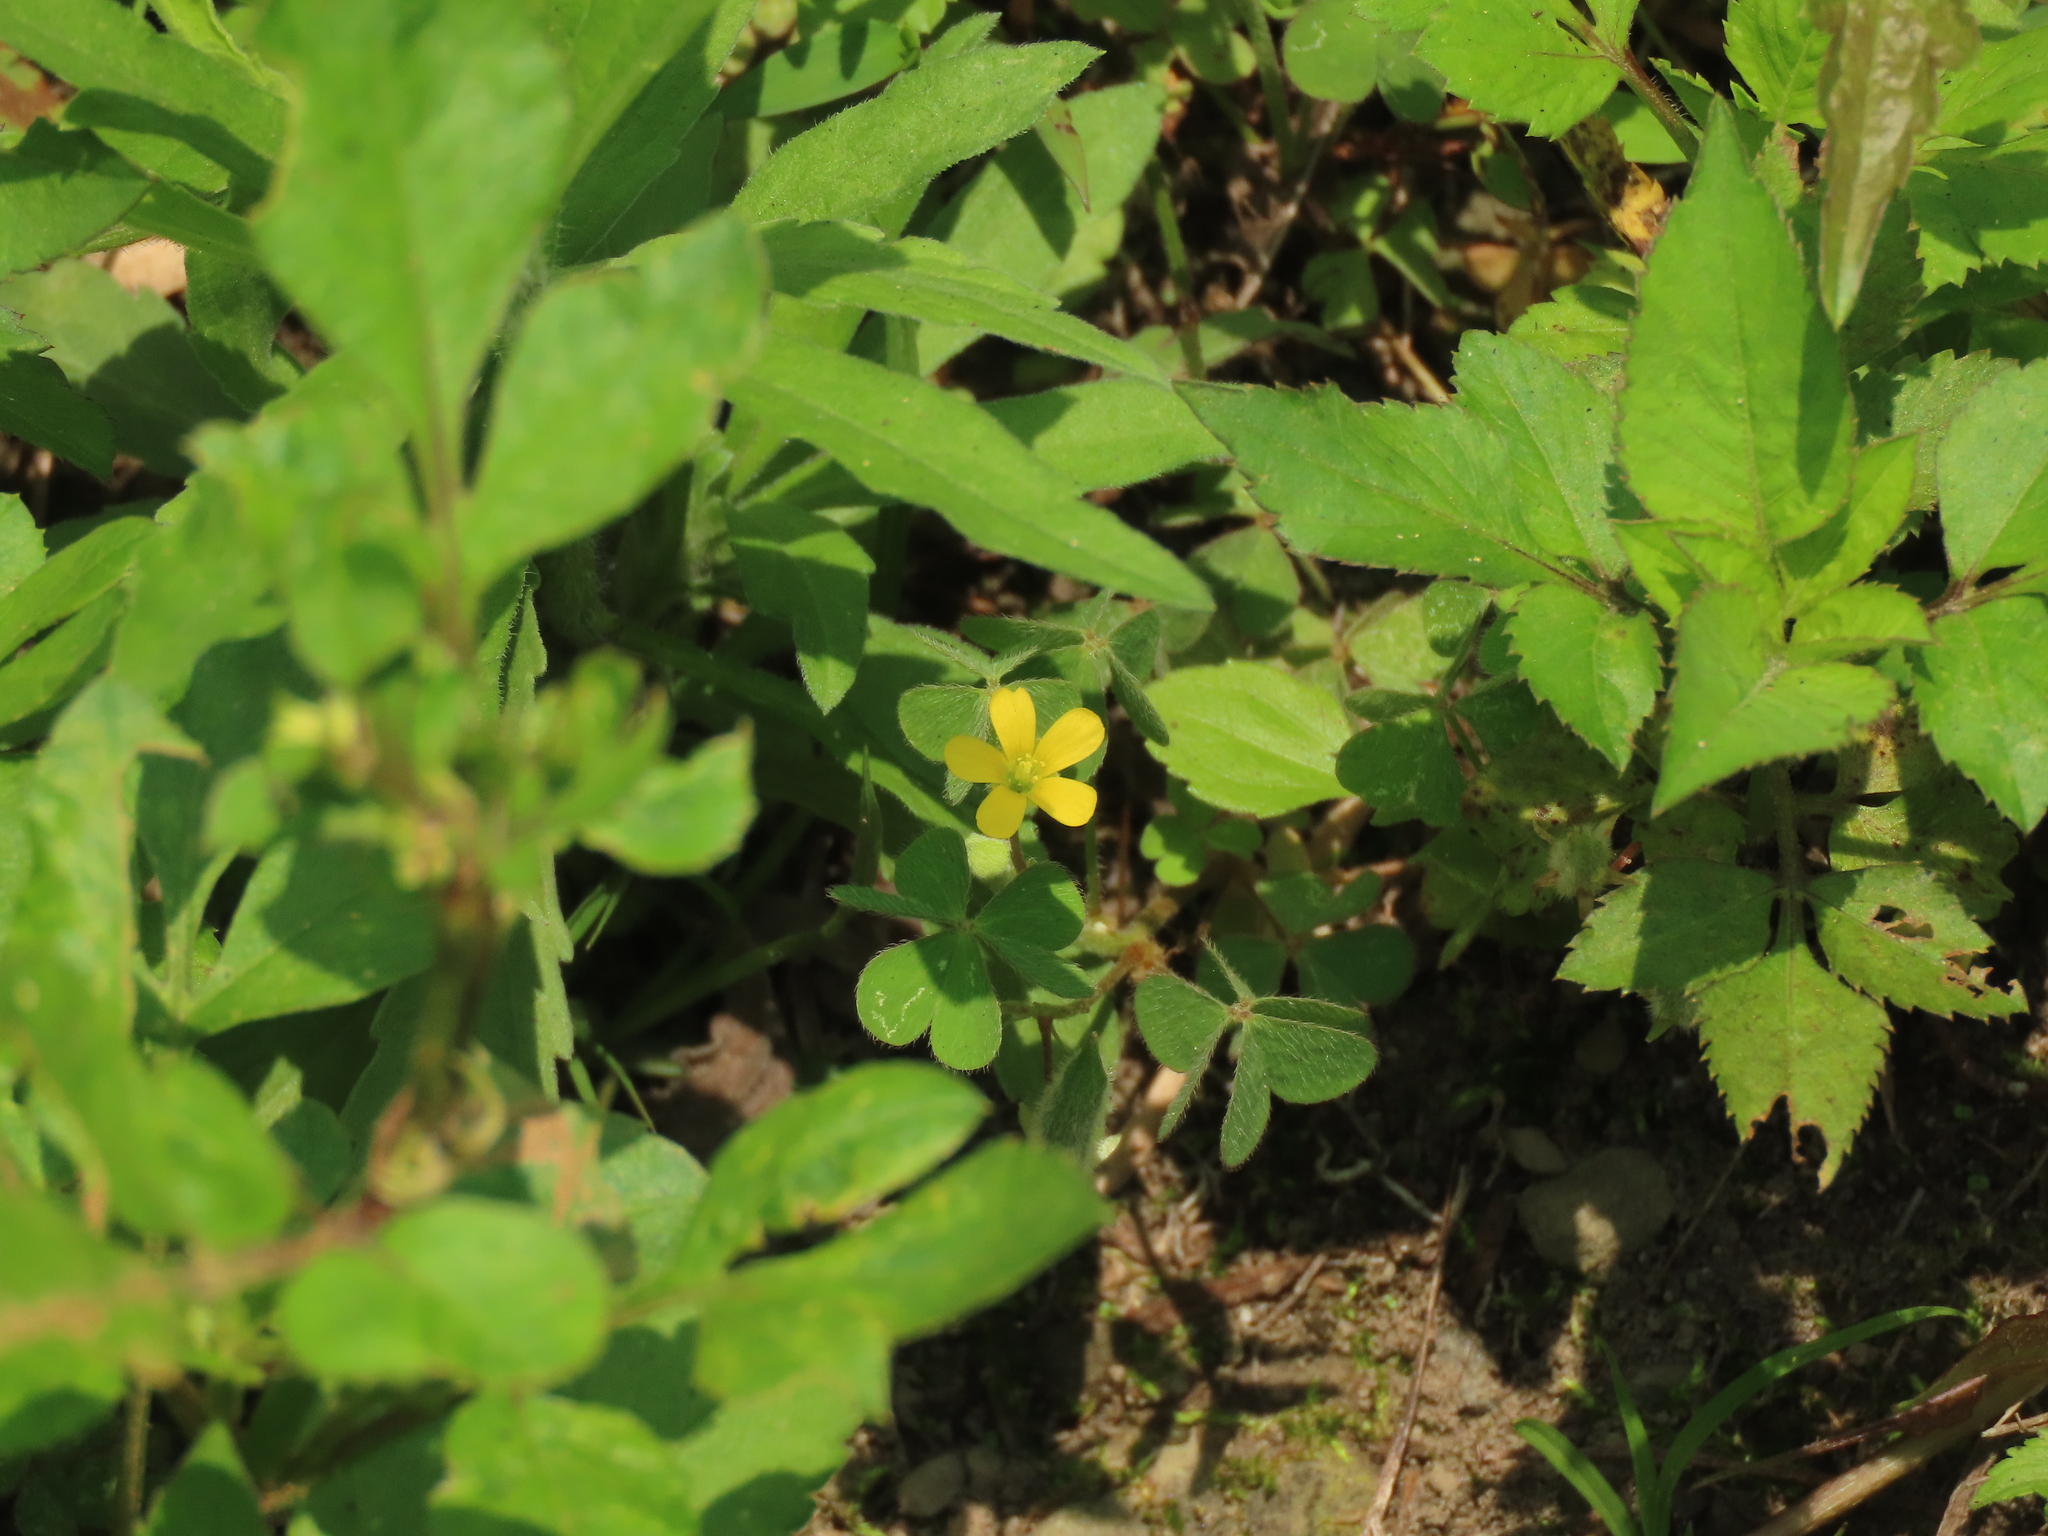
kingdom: Plantae
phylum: Tracheophyta
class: Magnoliopsida
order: Oxalidales
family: Oxalidaceae
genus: Oxalis
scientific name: Oxalis corniculata
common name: Procumbent yellow-sorrel
